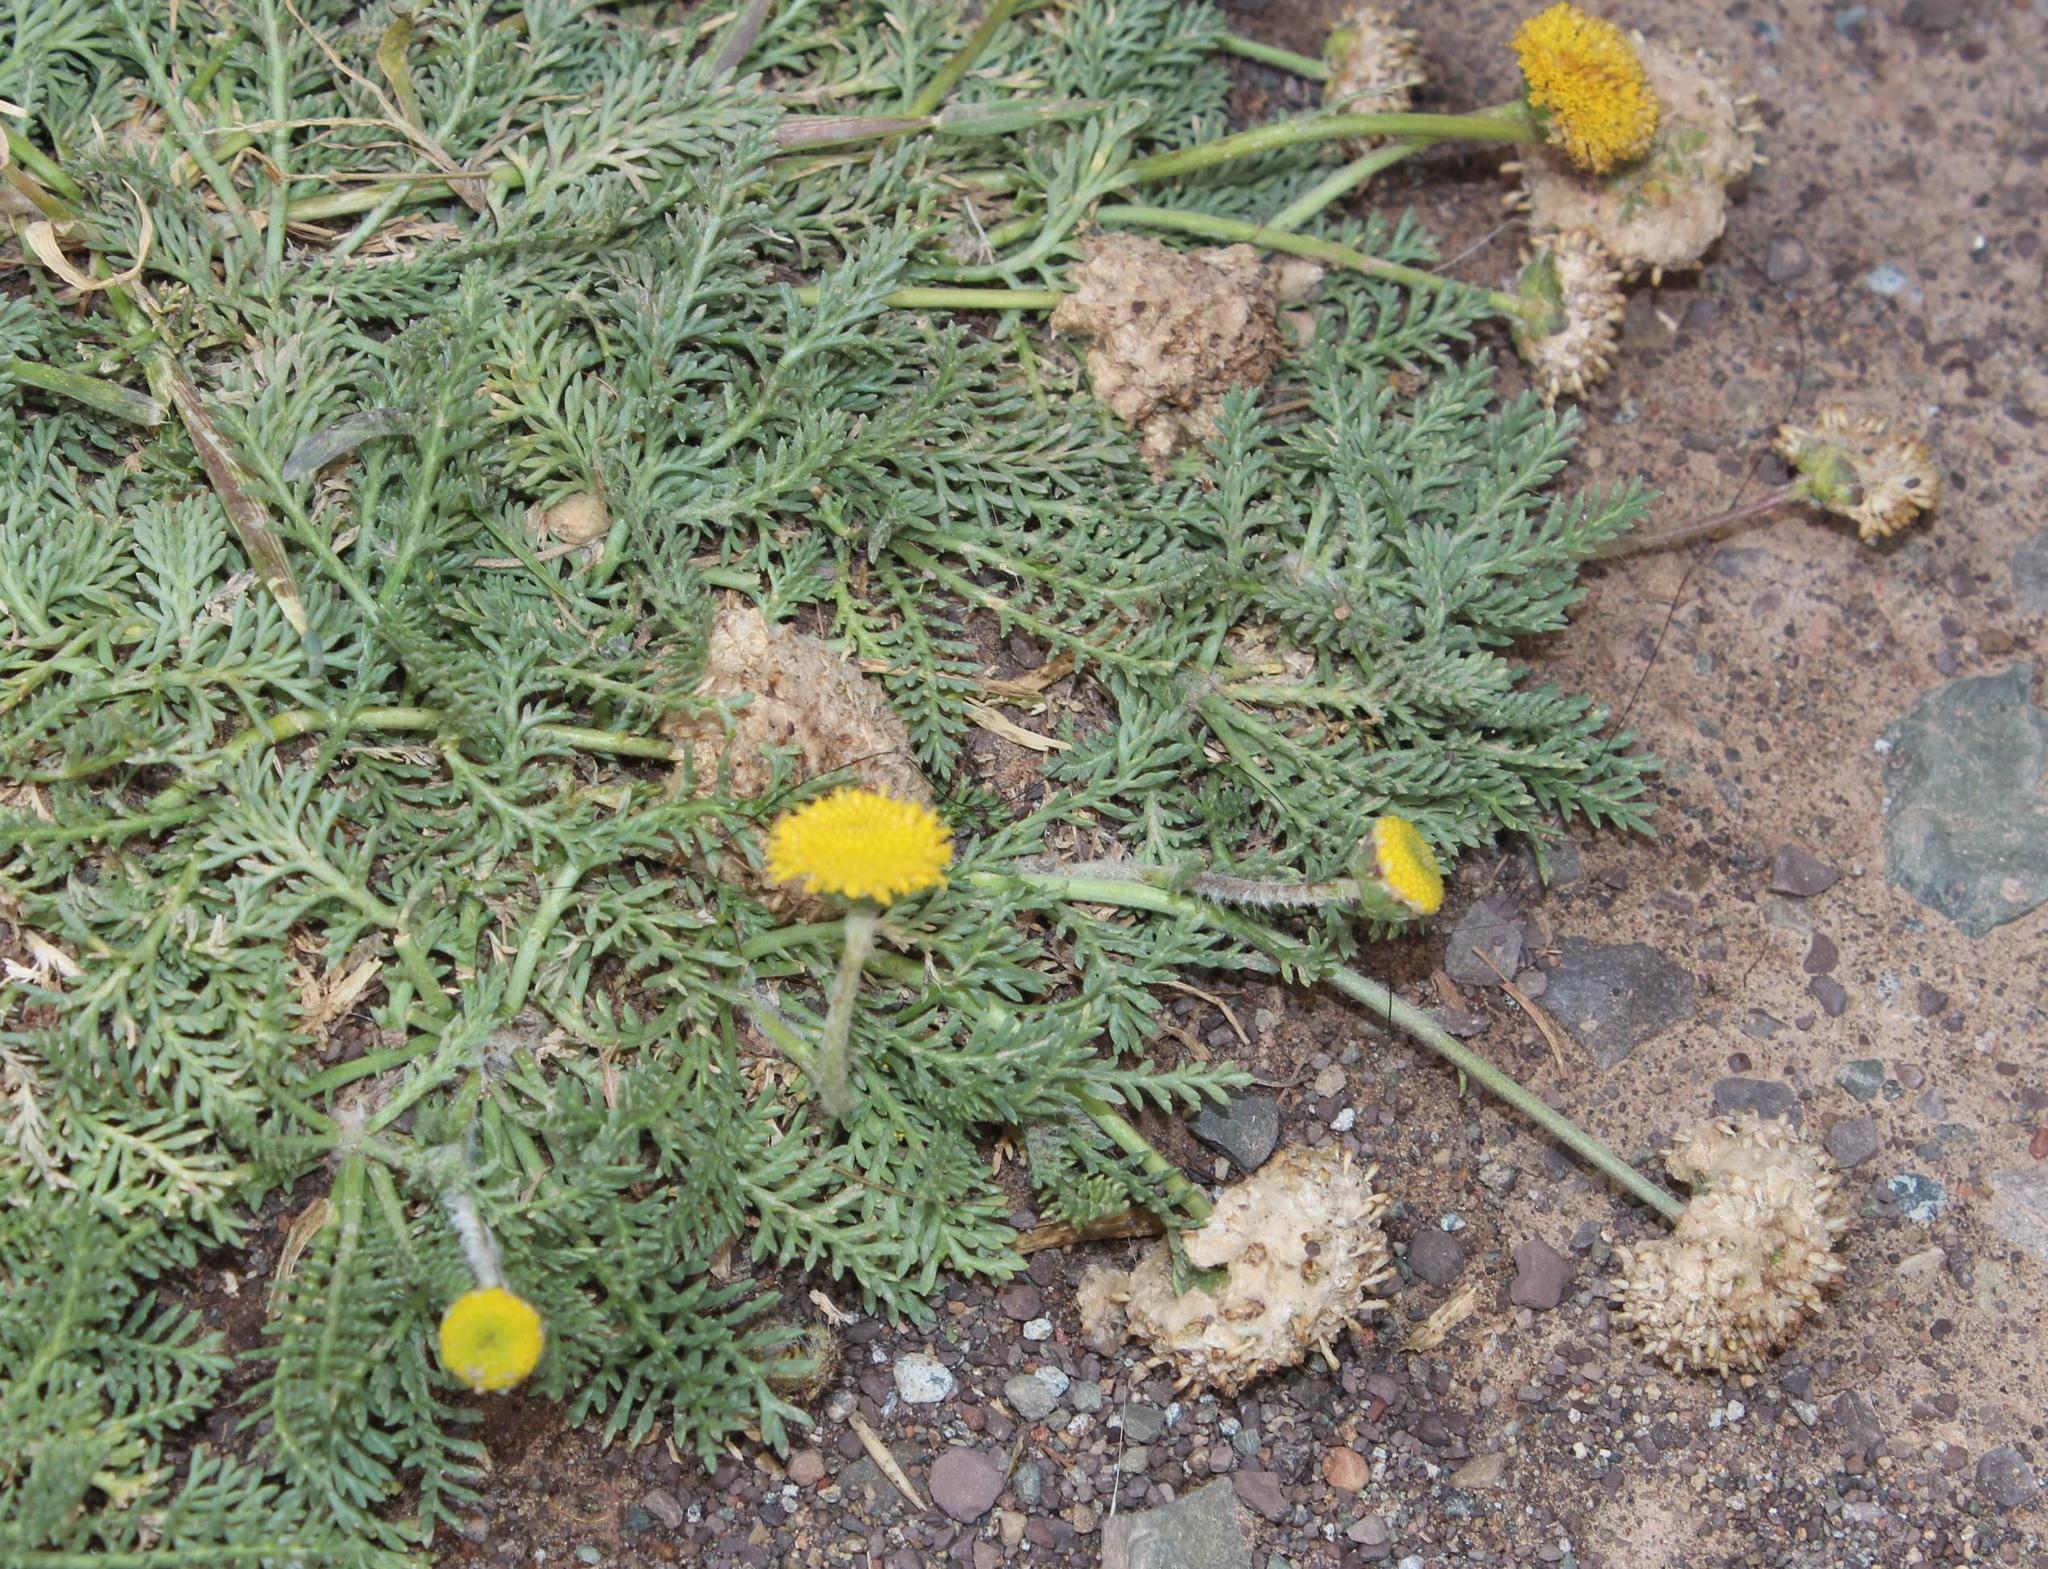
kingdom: Plantae
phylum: Tracheophyta
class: Magnoliopsida
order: Asterales
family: Asteraceae
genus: Lasiospermum
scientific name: Lasiospermum poterioides
